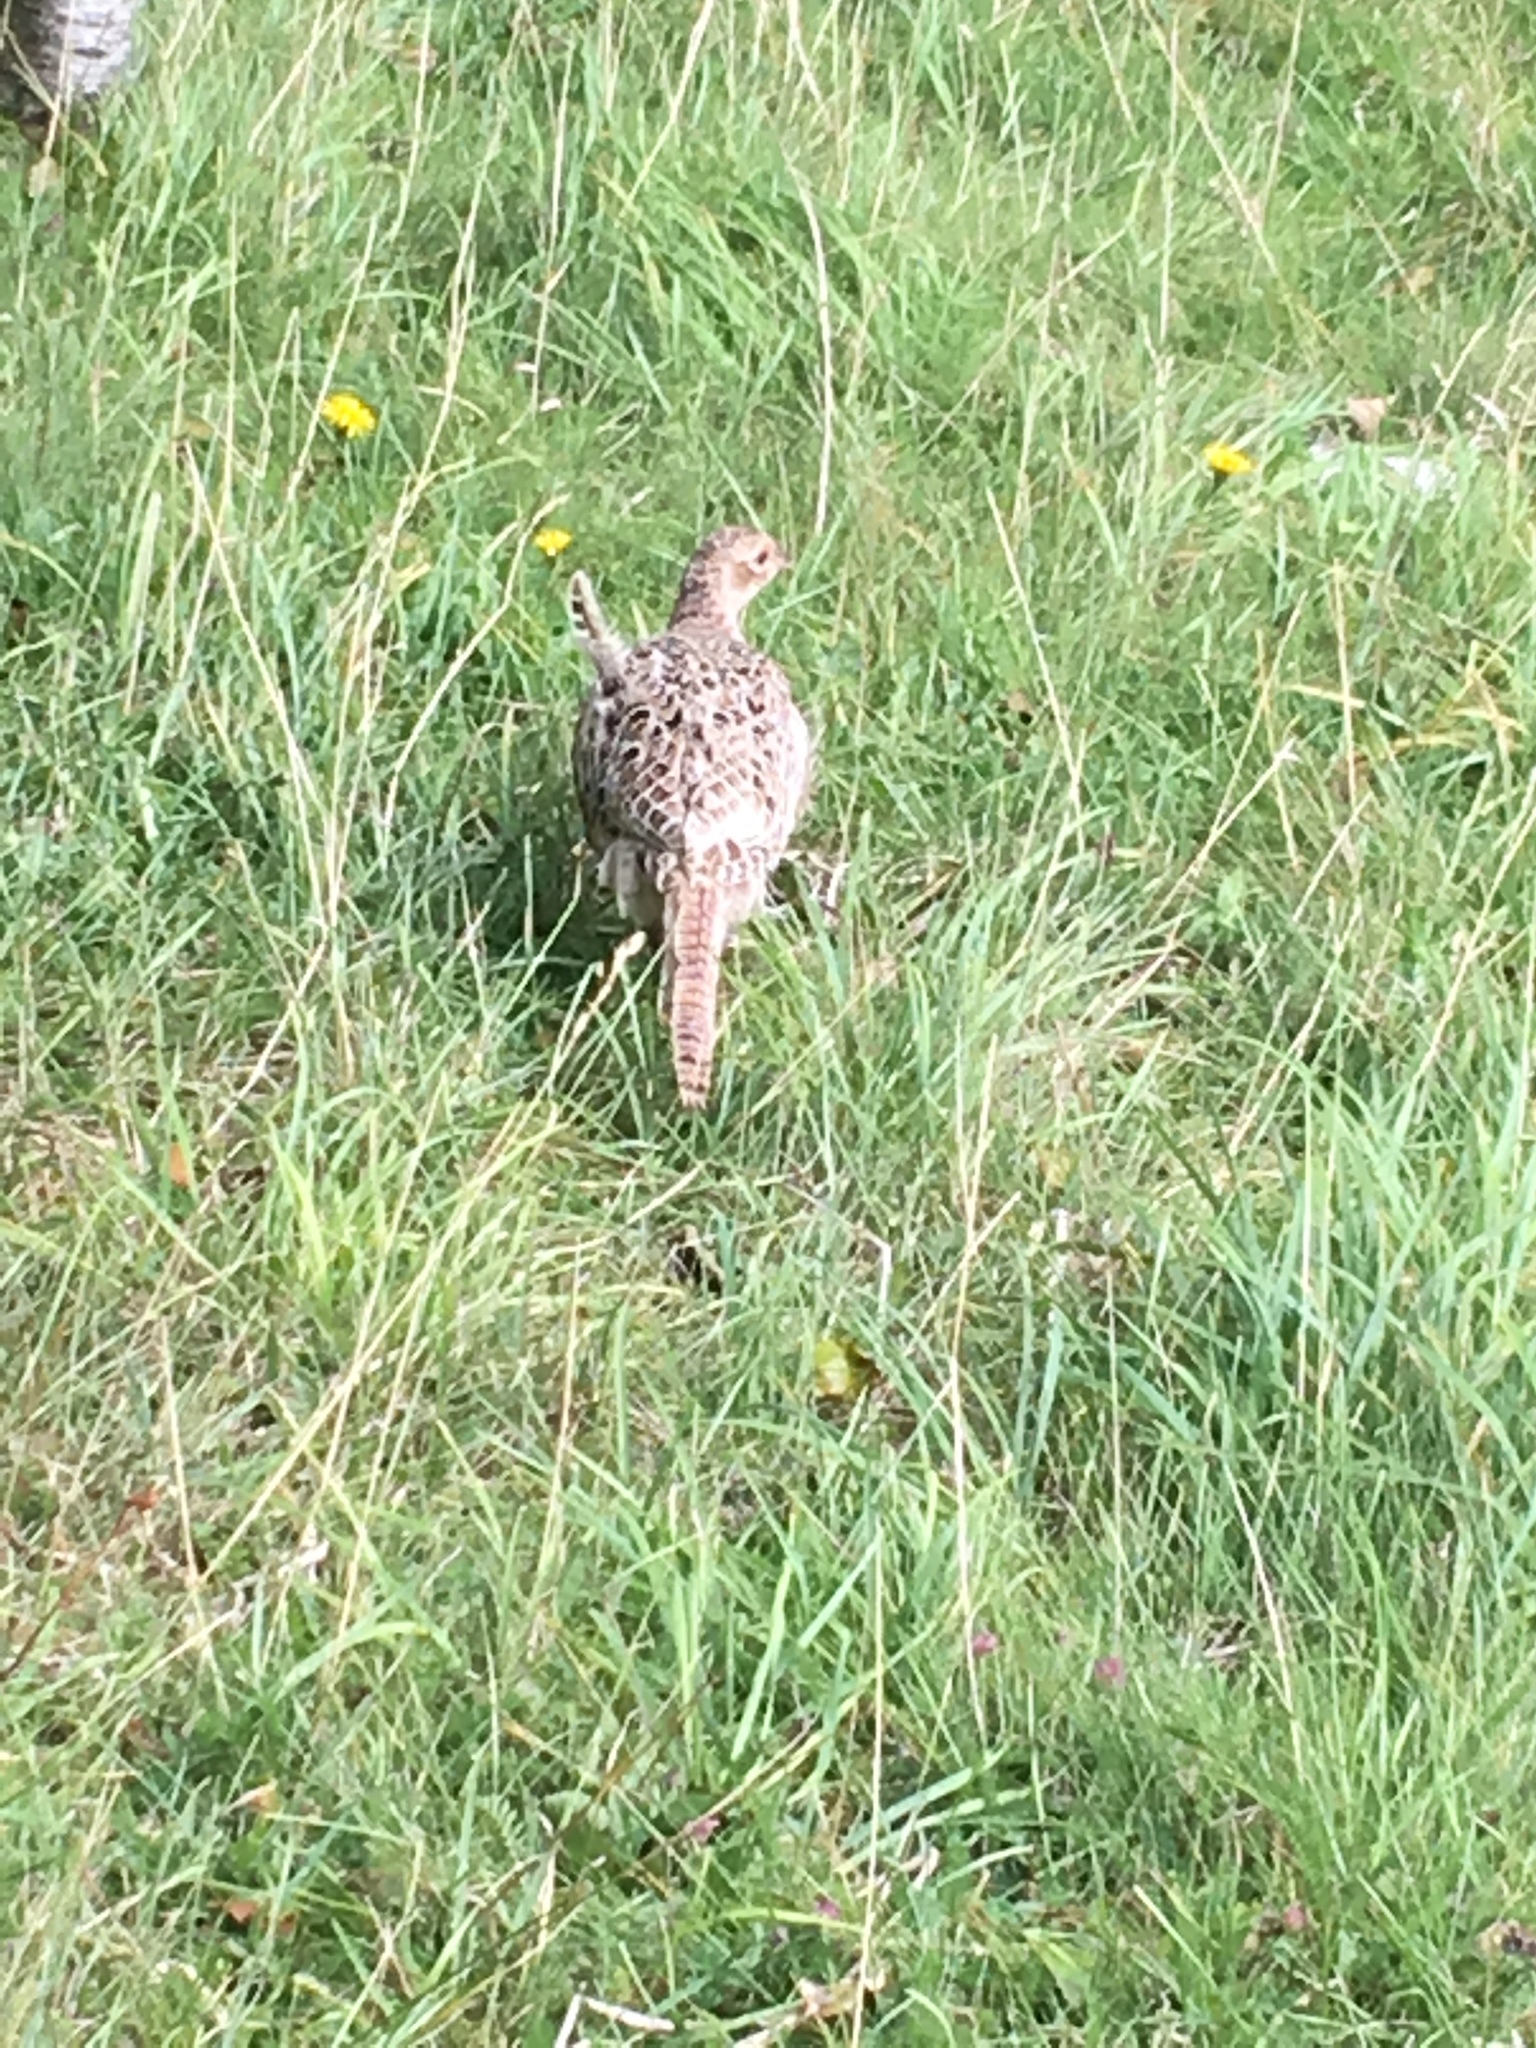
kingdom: Animalia
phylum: Chordata
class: Aves
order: Galliformes
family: Phasianidae
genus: Phasianus
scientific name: Phasianus colchicus
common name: Common pheasant
